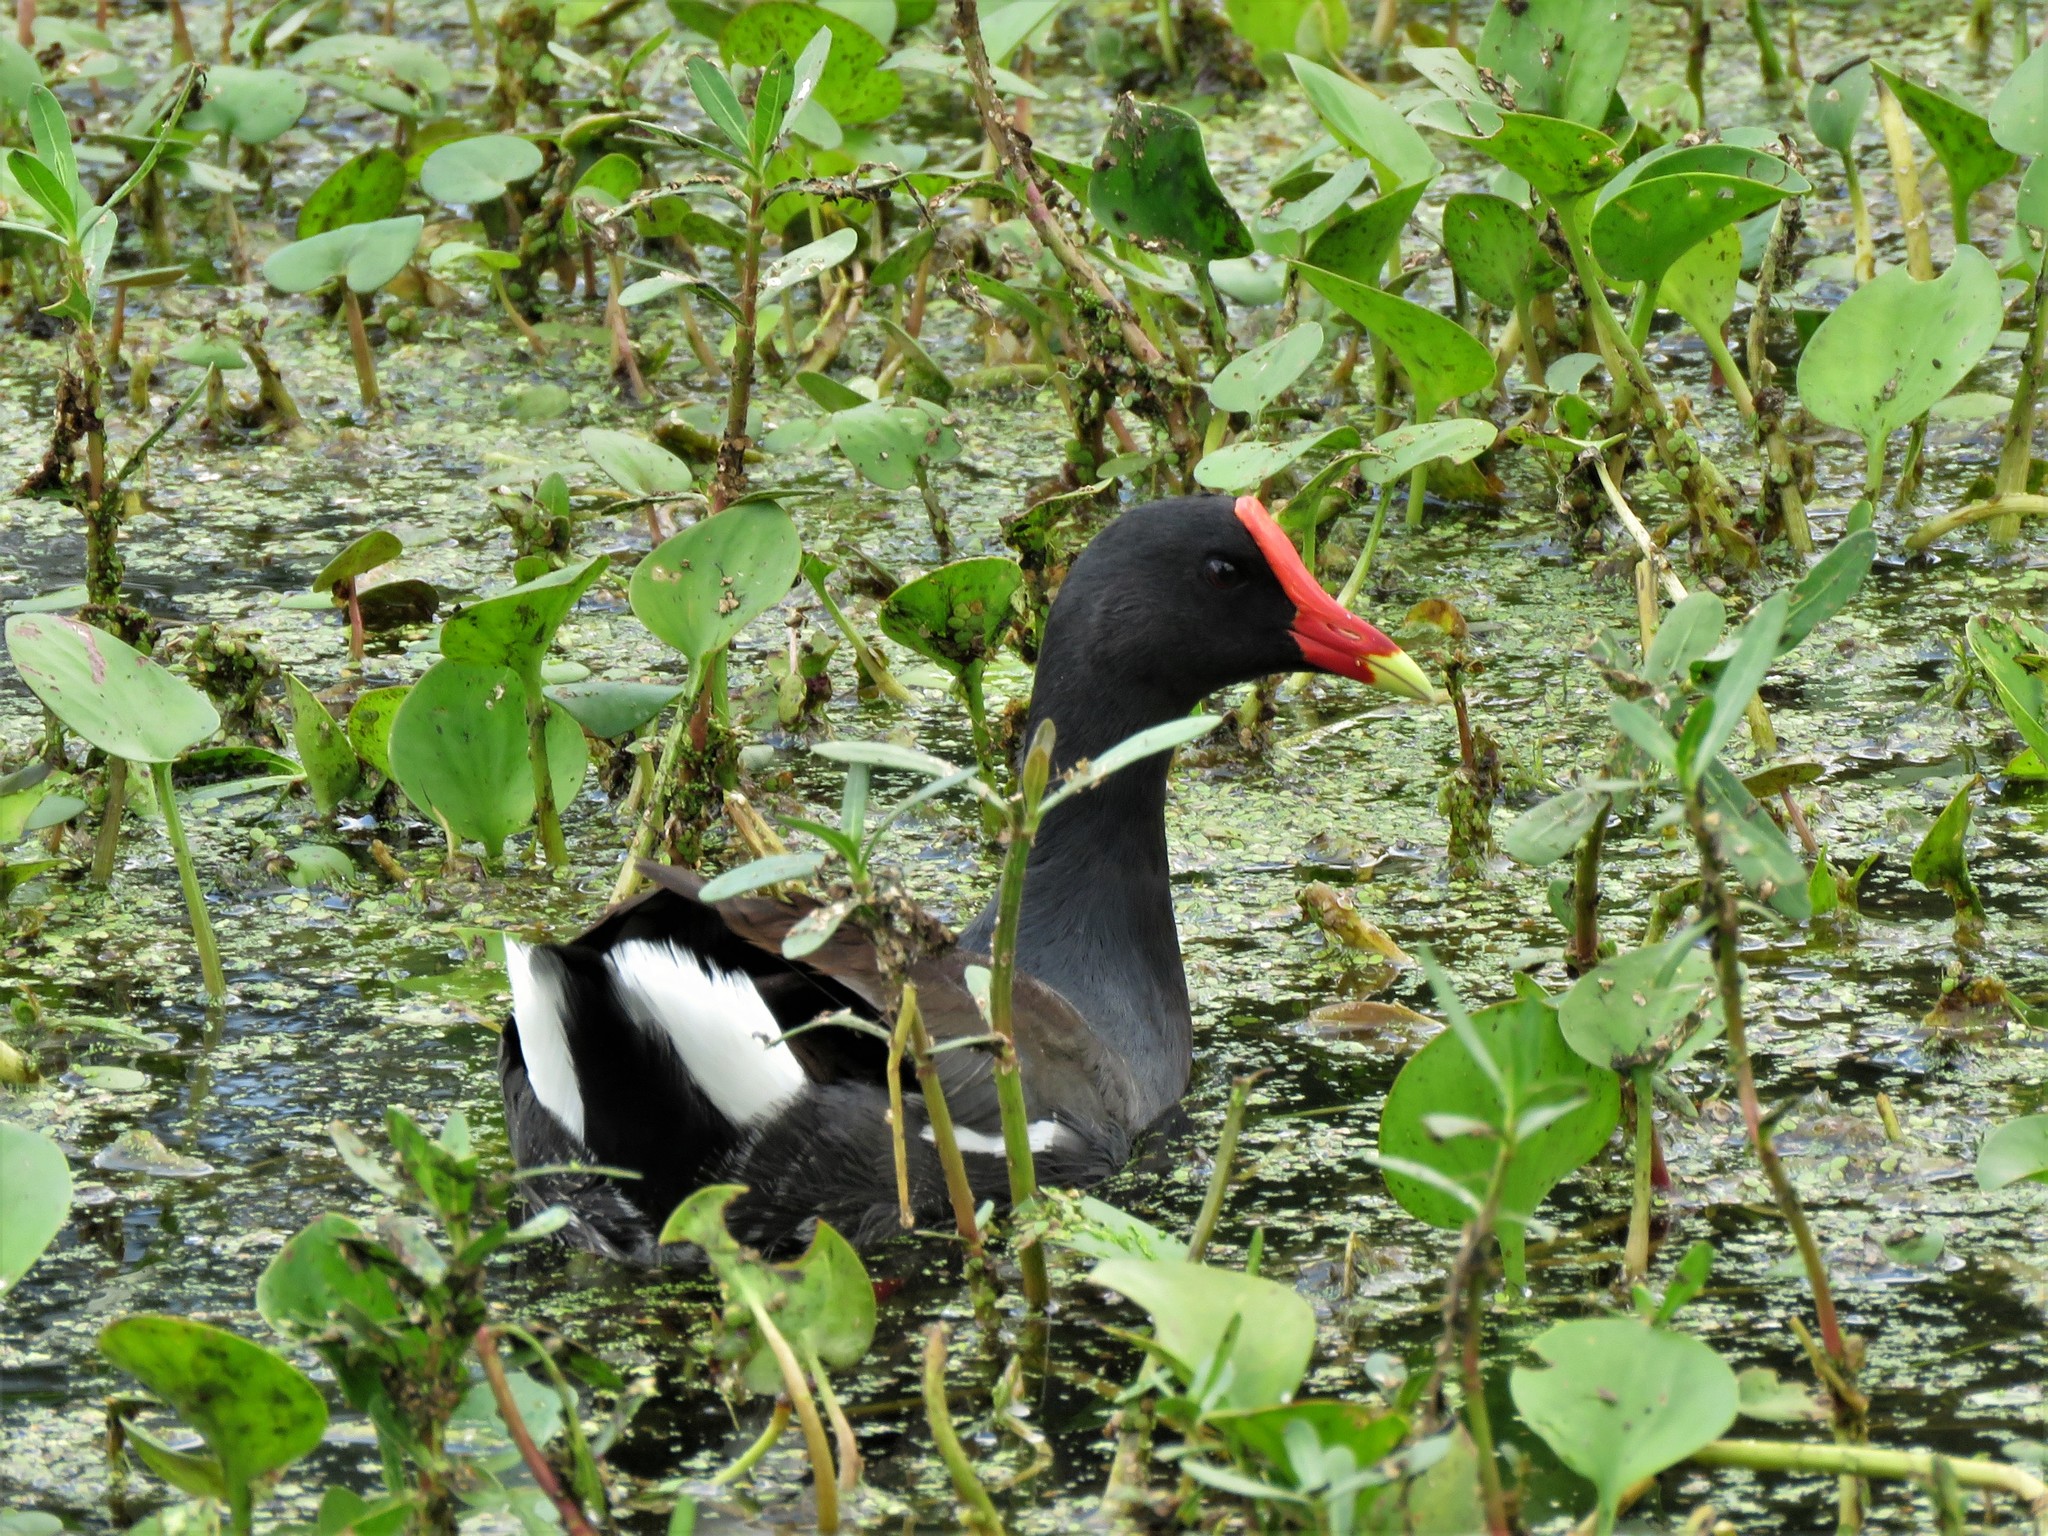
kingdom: Animalia
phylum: Chordata
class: Aves
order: Gruiformes
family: Rallidae
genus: Gallinula
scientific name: Gallinula chloropus
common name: Common moorhen
